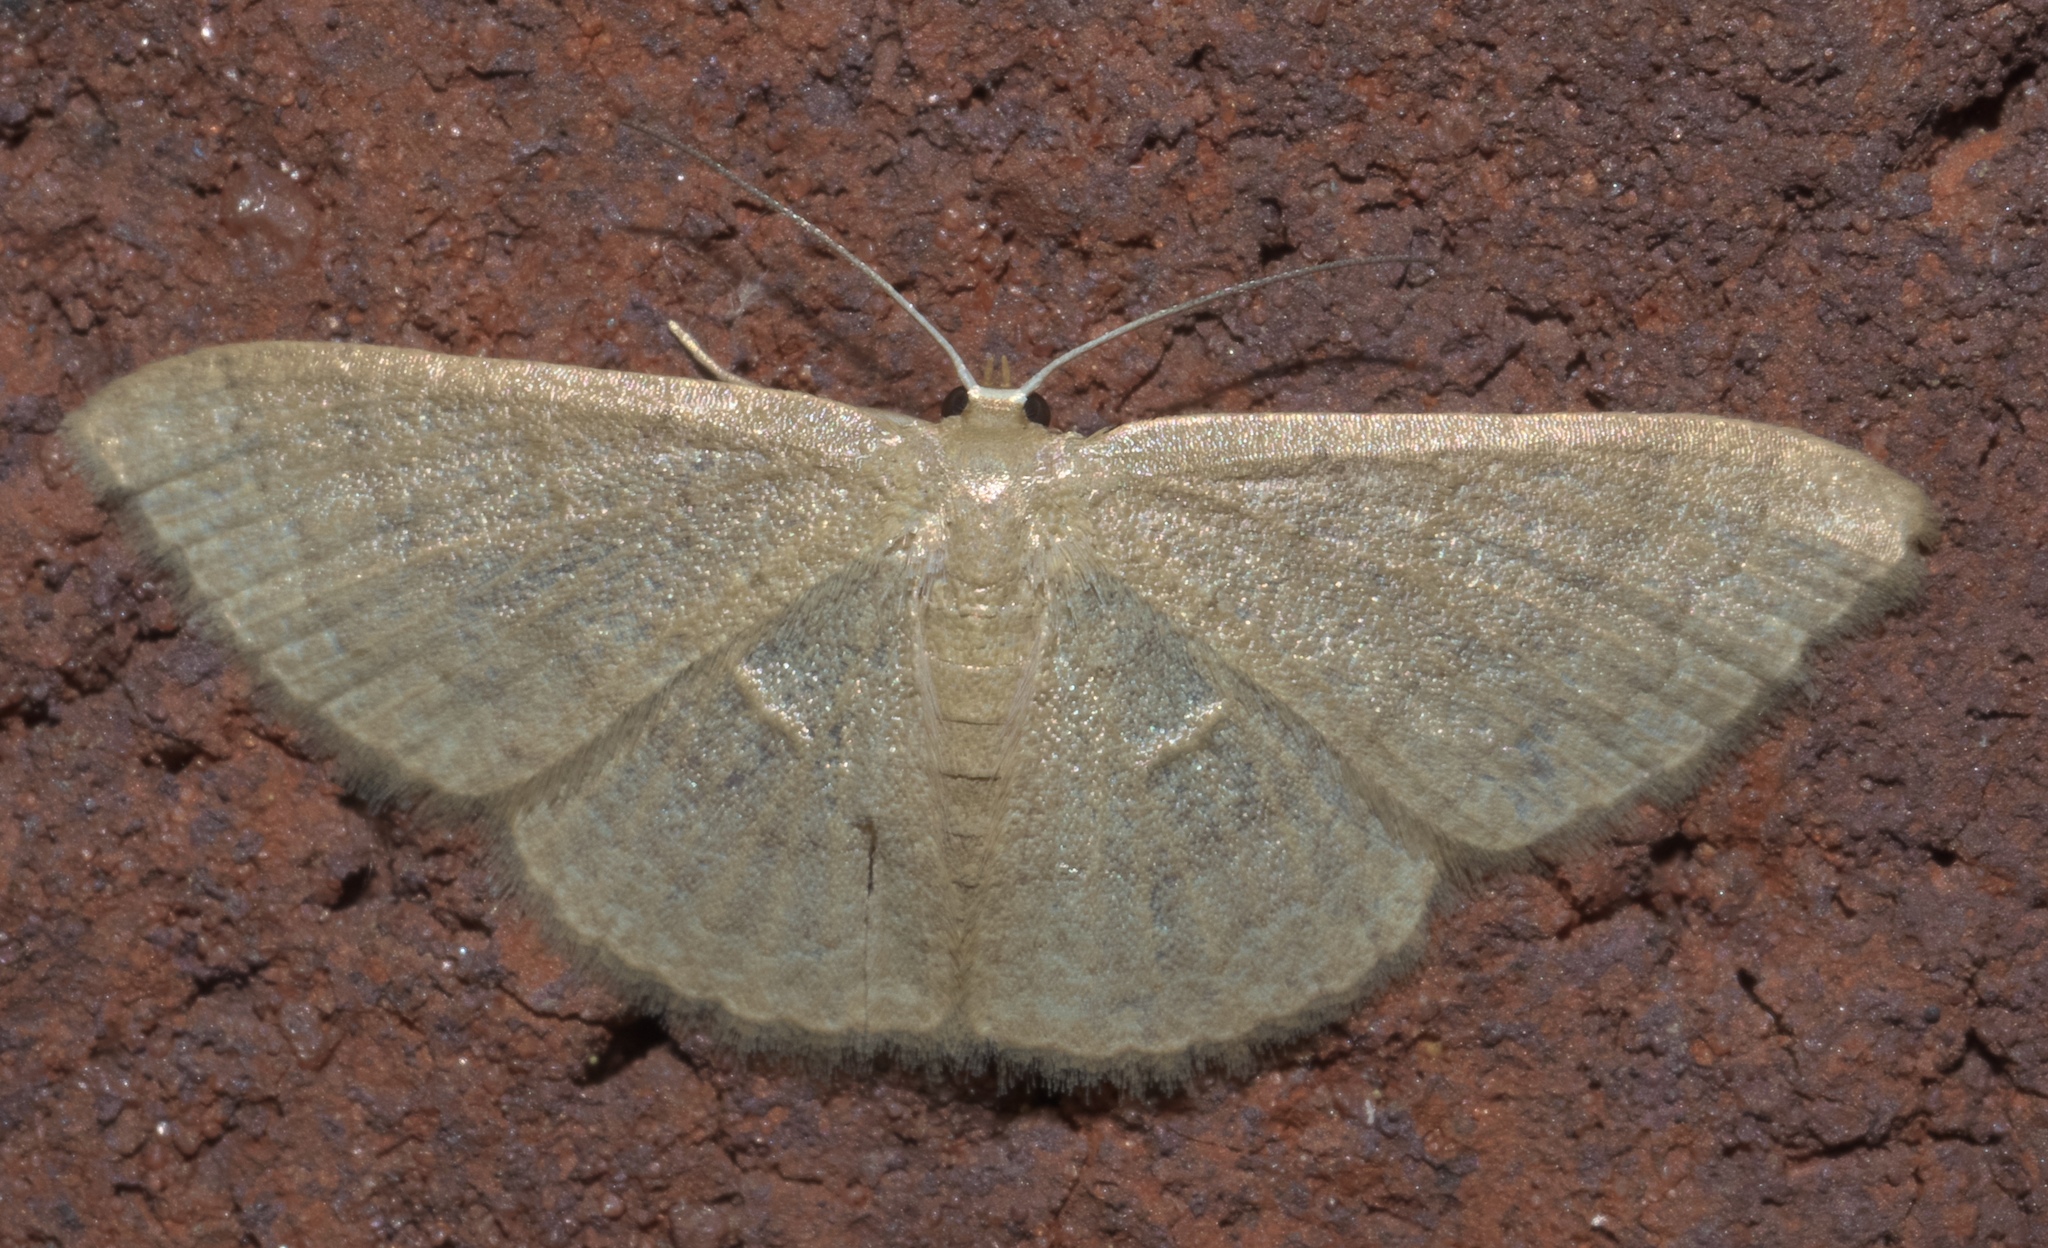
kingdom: Animalia
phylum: Arthropoda
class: Insecta
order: Lepidoptera
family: Geometridae
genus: Pleuroprucha
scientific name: Pleuroprucha insulsaria
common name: Common tan wave
